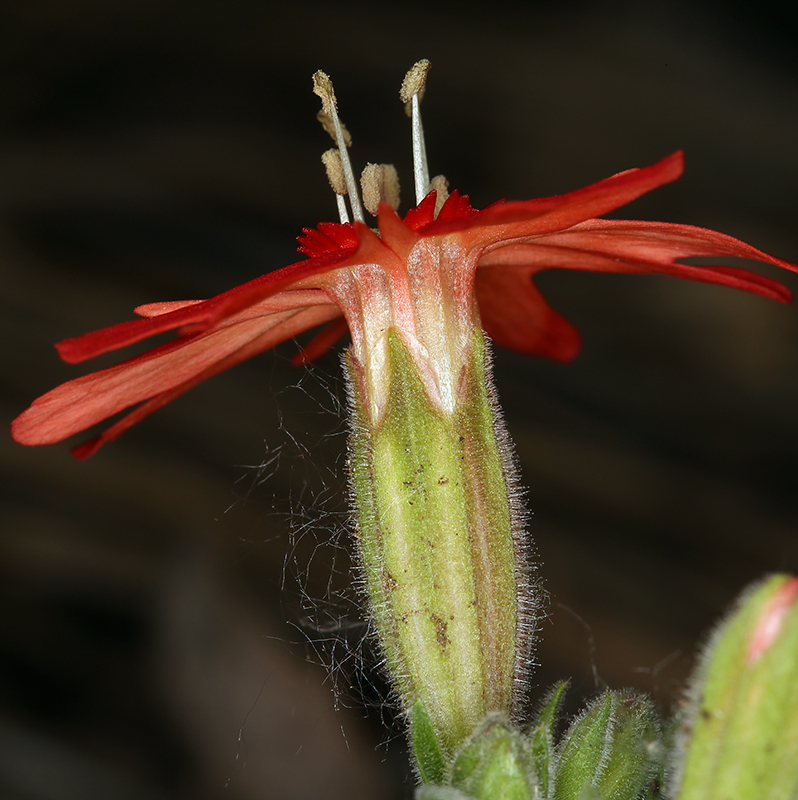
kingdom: Plantae
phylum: Tracheophyta
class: Magnoliopsida
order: Caryophyllales
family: Caryophyllaceae
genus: Silene
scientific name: Silene laciniata
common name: Indian-pink
